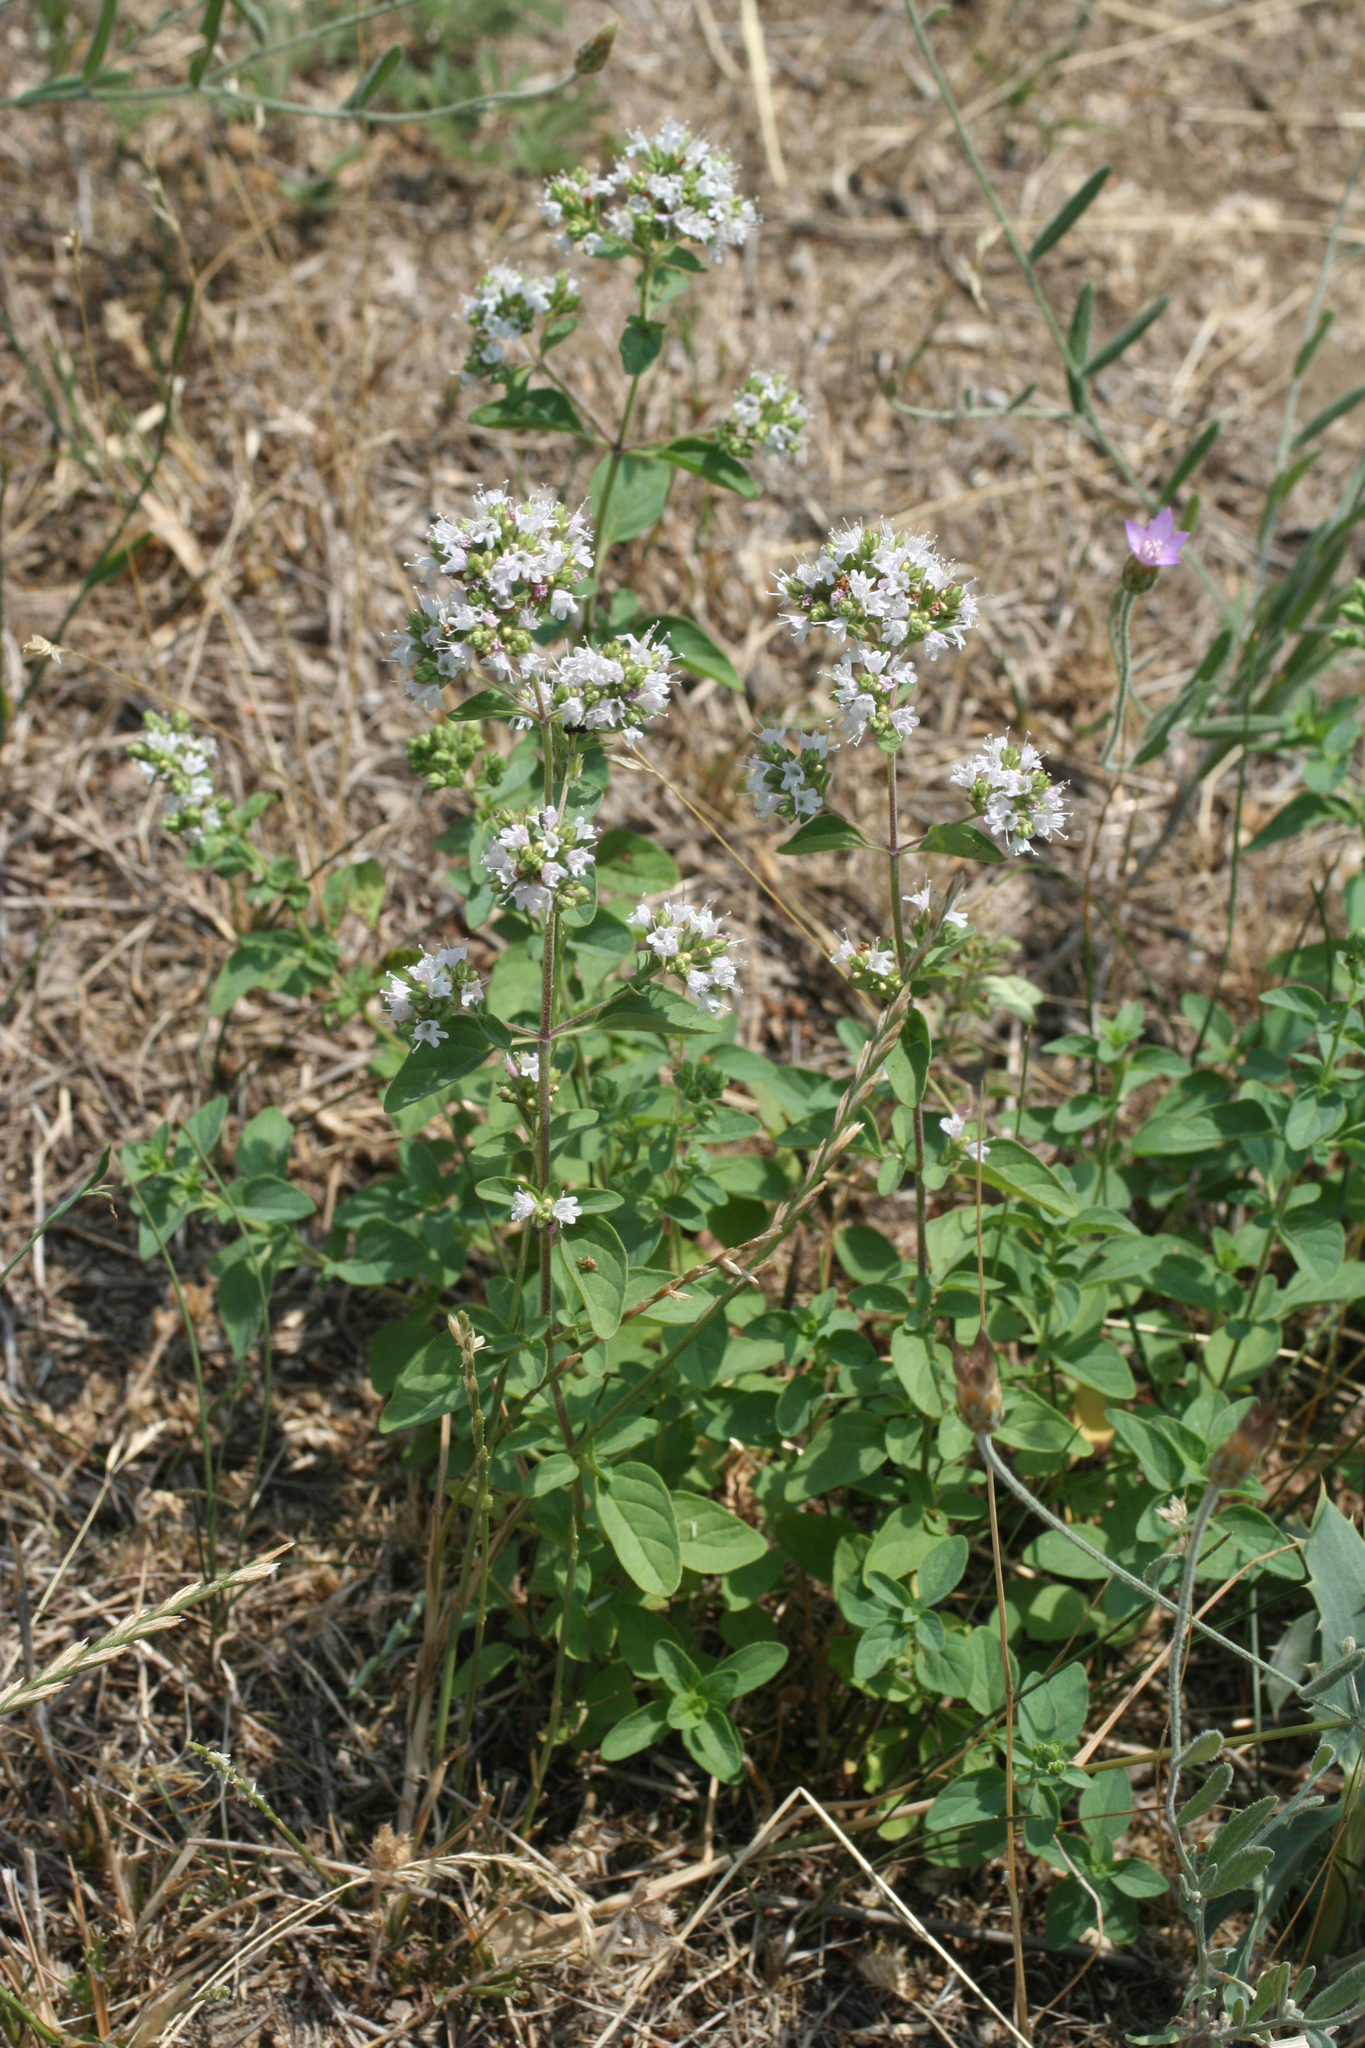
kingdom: Plantae
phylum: Tracheophyta
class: Magnoliopsida
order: Lamiales
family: Lamiaceae
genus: Origanum
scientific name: Origanum vulgare
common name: Wild marjoram
